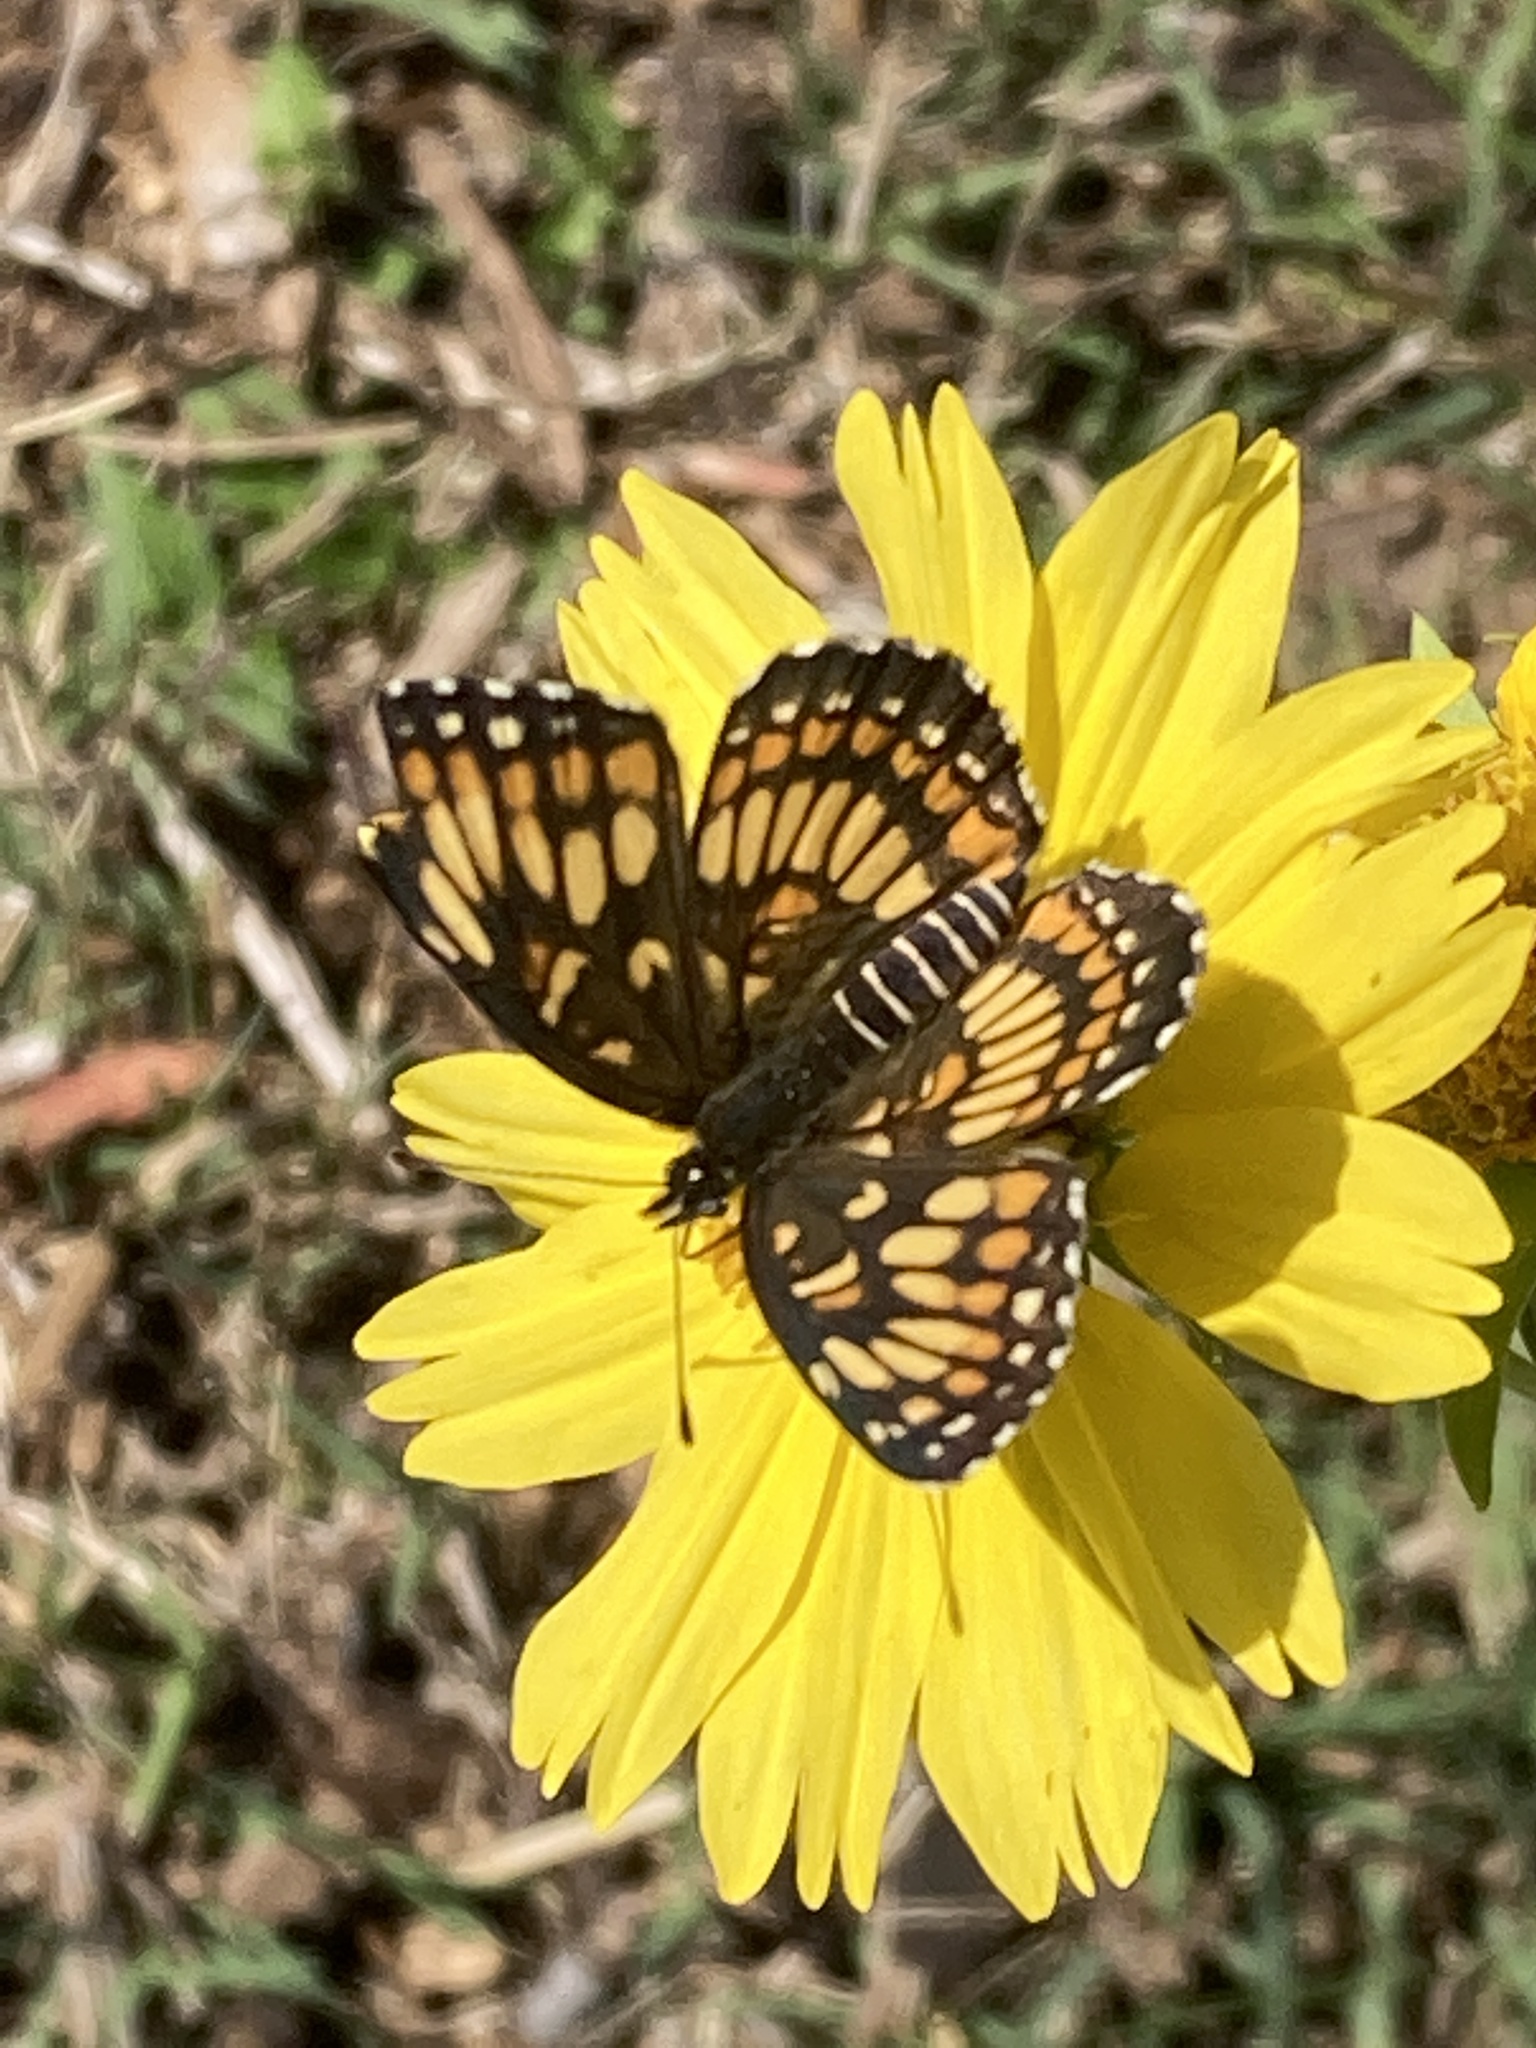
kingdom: Animalia
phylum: Arthropoda
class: Insecta
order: Lepidoptera
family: Nymphalidae
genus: Thessalia
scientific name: Thessalia theona
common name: Nymphalid moth
